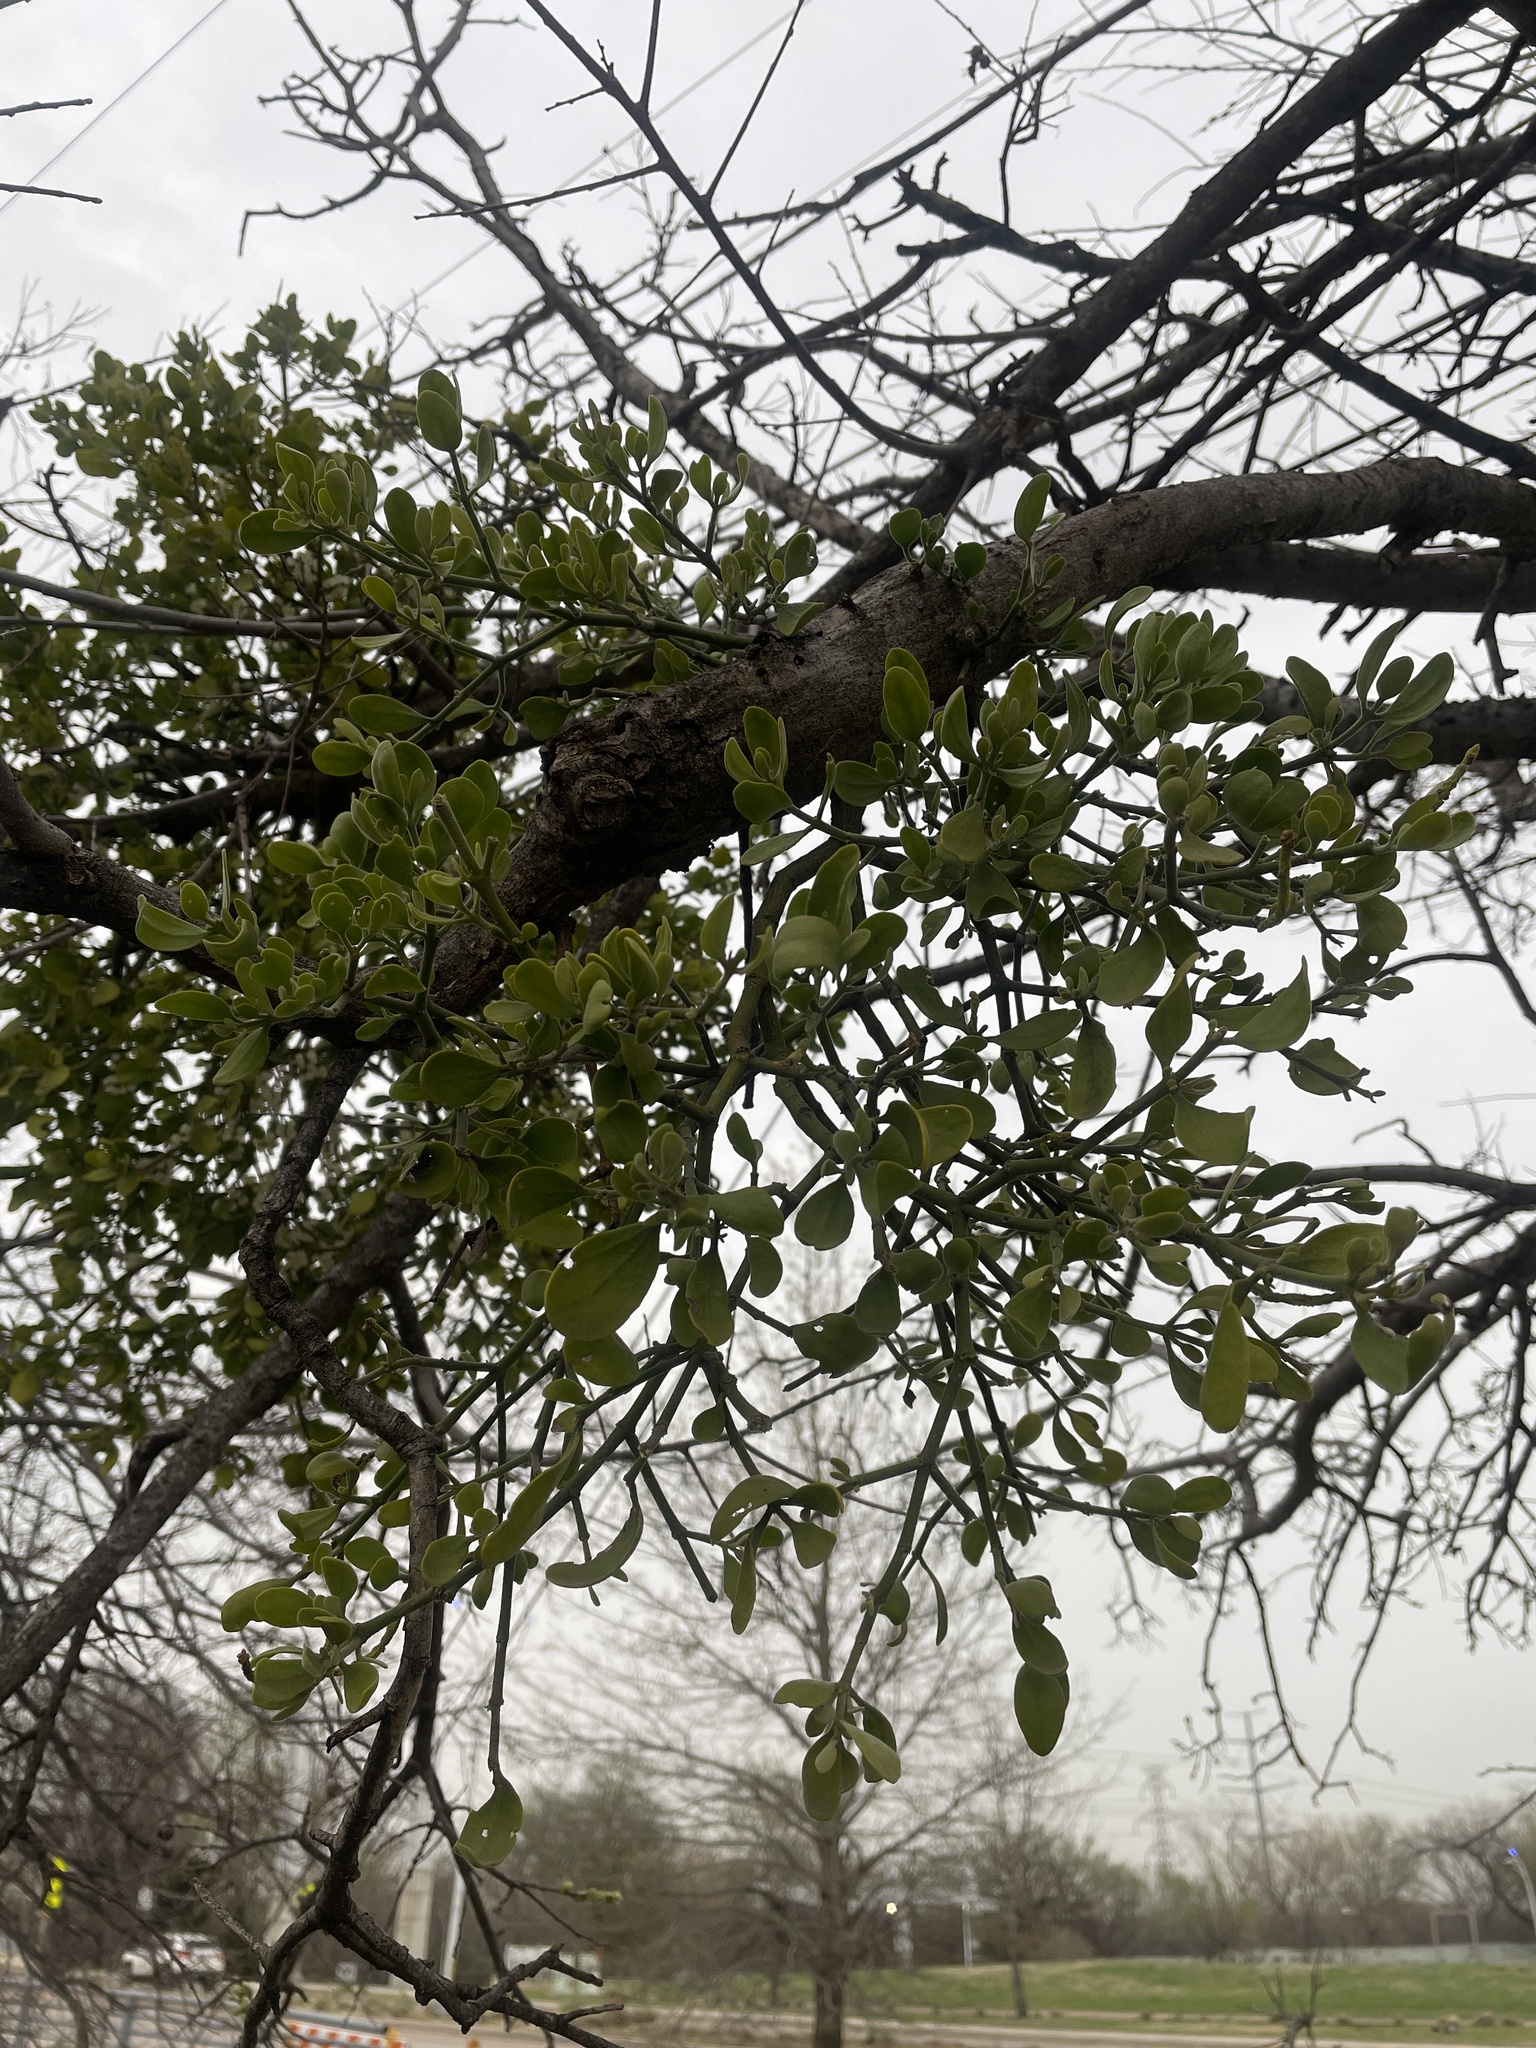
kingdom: Plantae
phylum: Tracheophyta
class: Magnoliopsida
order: Santalales
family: Viscaceae
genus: Phoradendron
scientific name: Phoradendron leucarpum
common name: Pacific mistletoe
